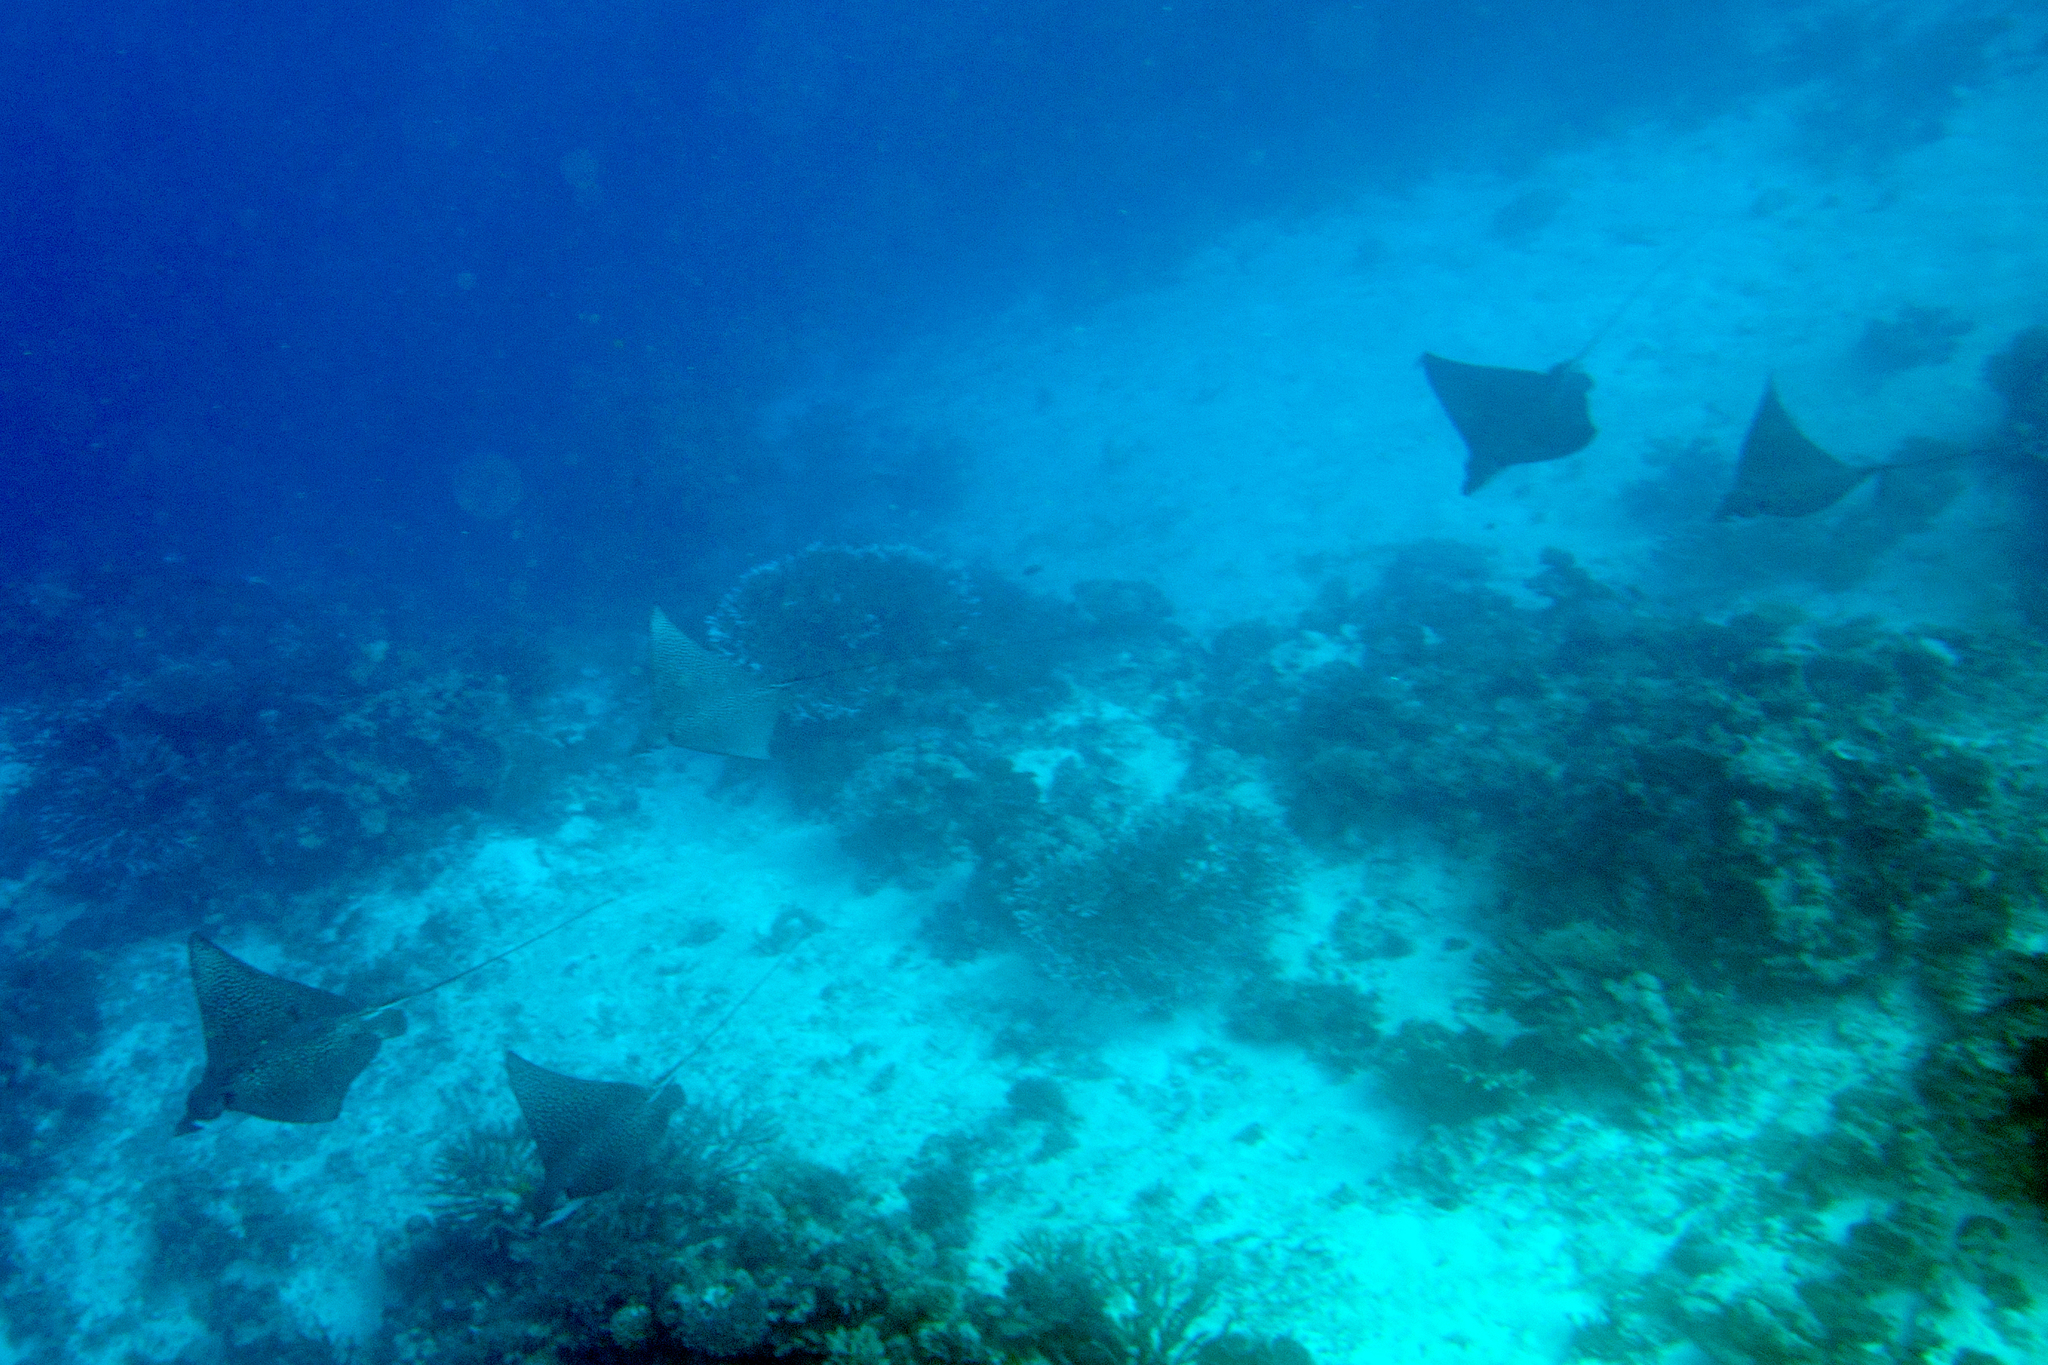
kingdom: Animalia
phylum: Chordata
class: Elasmobranchii
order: Myliobatiformes
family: Myliobatidae
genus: Aetobatus
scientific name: Aetobatus ocellatus
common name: Ocellated eagle ray
